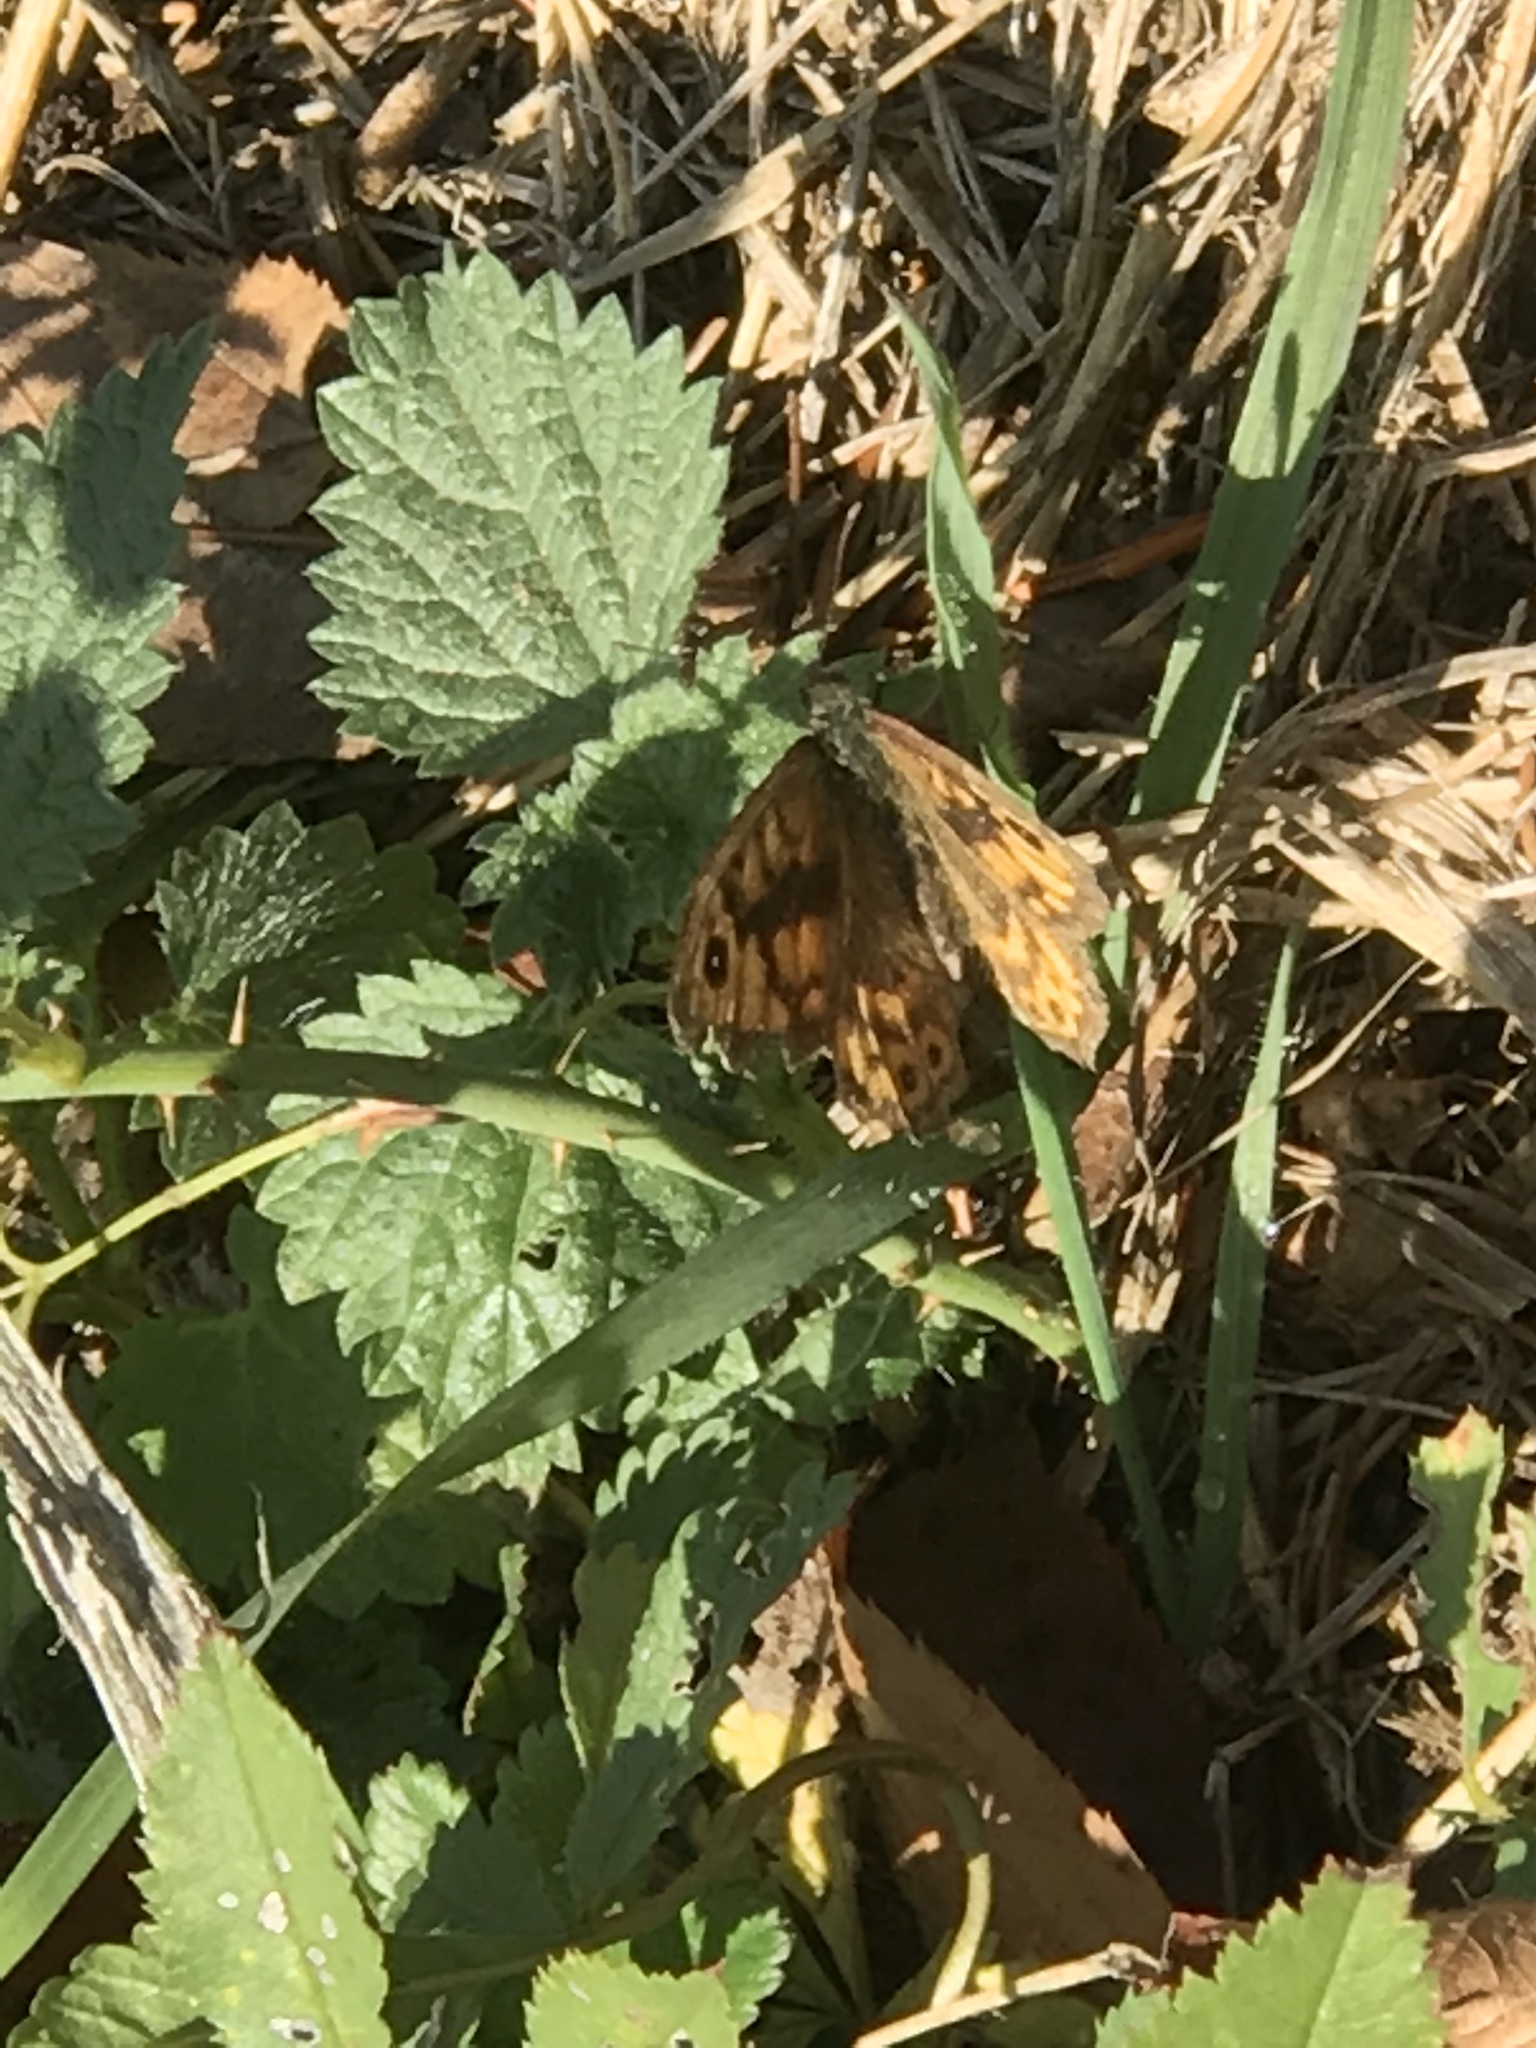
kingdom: Animalia
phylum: Arthropoda
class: Insecta
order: Lepidoptera
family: Nymphalidae
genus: Pararge
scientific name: Pararge Lasiommata megera
